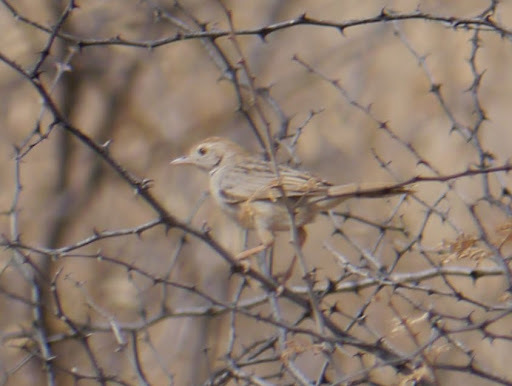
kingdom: Animalia
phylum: Chordata
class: Aves
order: Passeriformes
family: Cisticolidae
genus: Cisticola
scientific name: Cisticola chiniana
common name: Rattling cisticola
